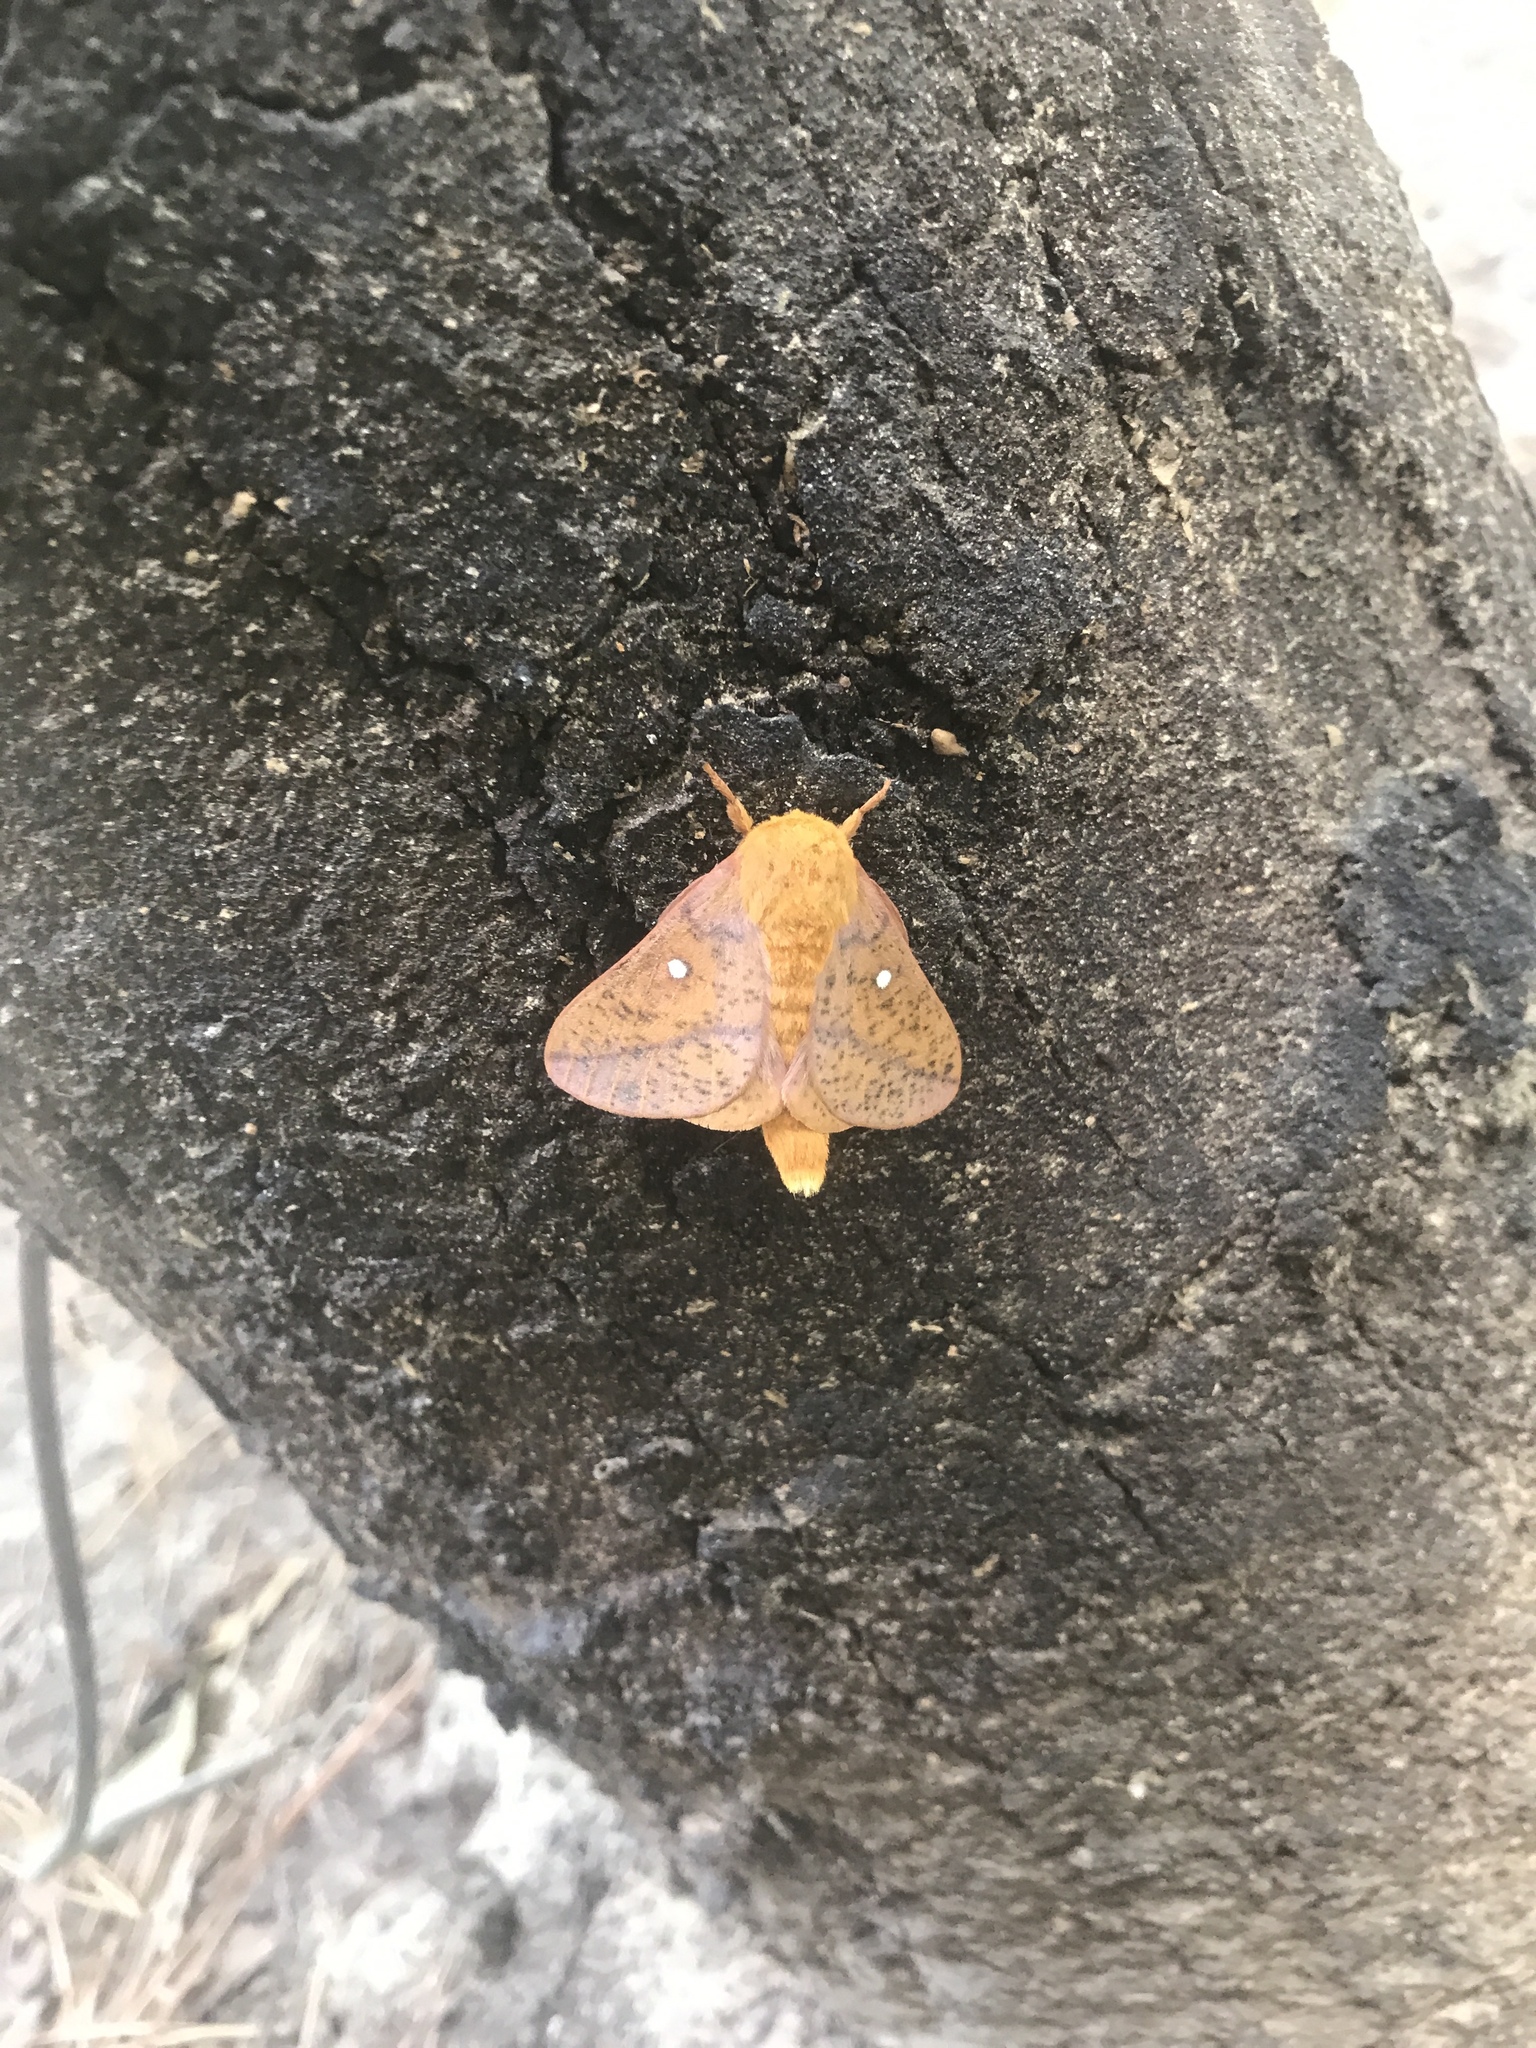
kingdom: Animalia
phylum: Arthropoda
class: Insecta
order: Lepidoptera
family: Saturniidae
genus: Anisota
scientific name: Anisota stigma
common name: Spiny oakworm moth
